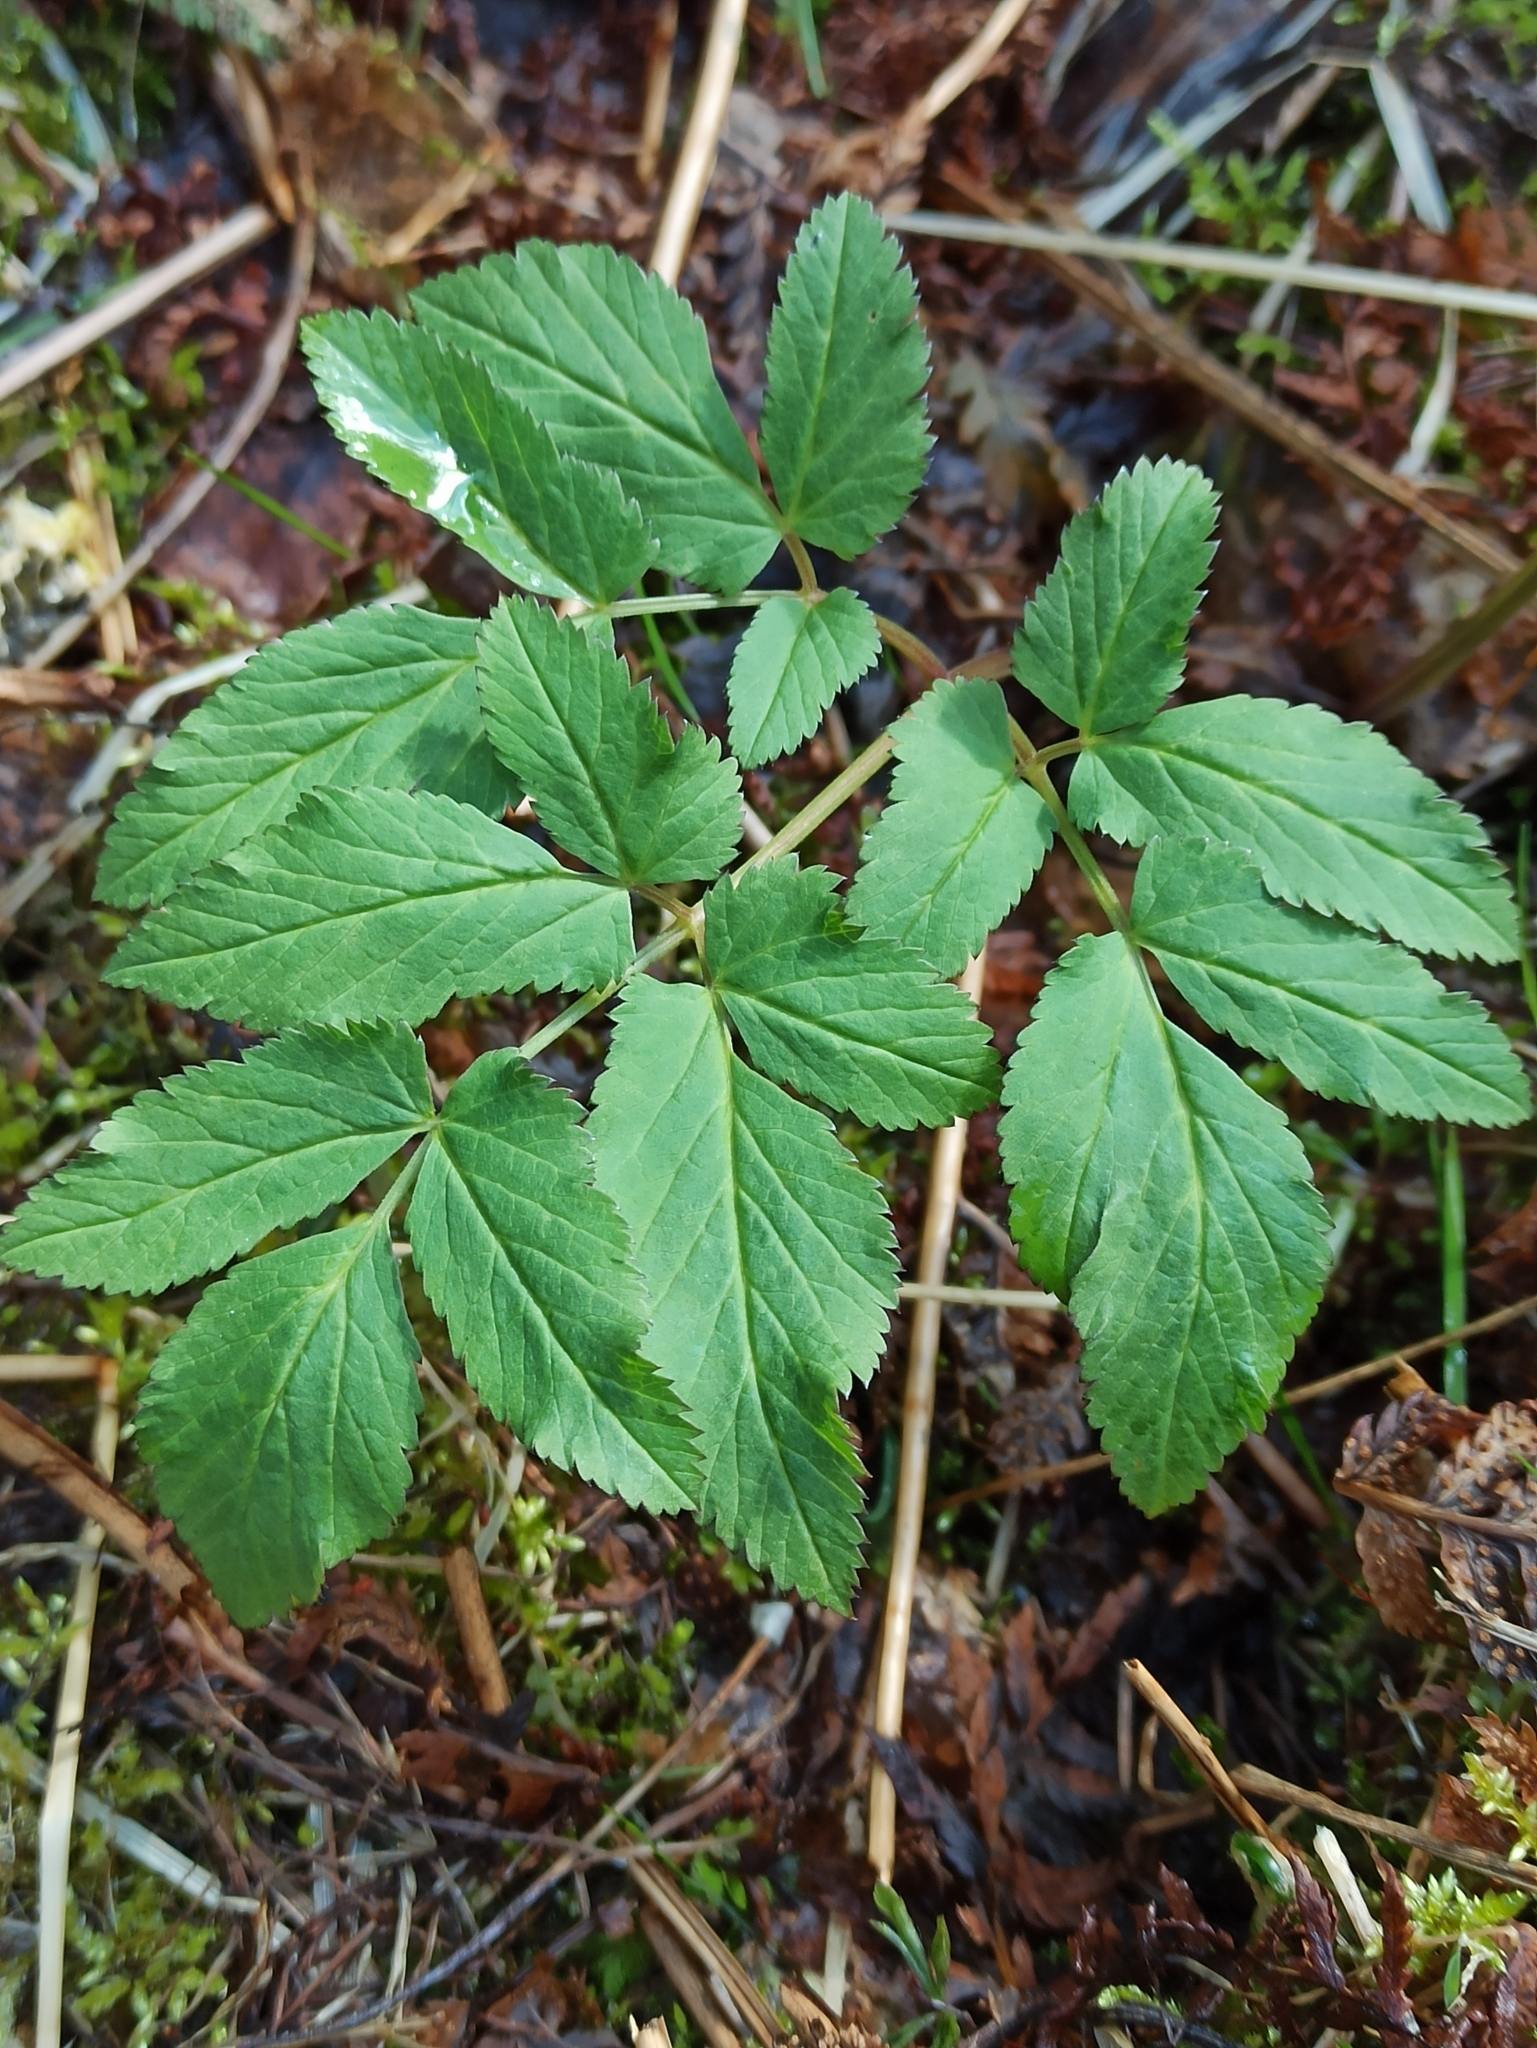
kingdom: Plantae
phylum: Tracheophyta
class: Magnoliopsida
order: Apiales
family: Apiaceae
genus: Aegopodium
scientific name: Aegopodium podagraria
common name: Ground-elder
